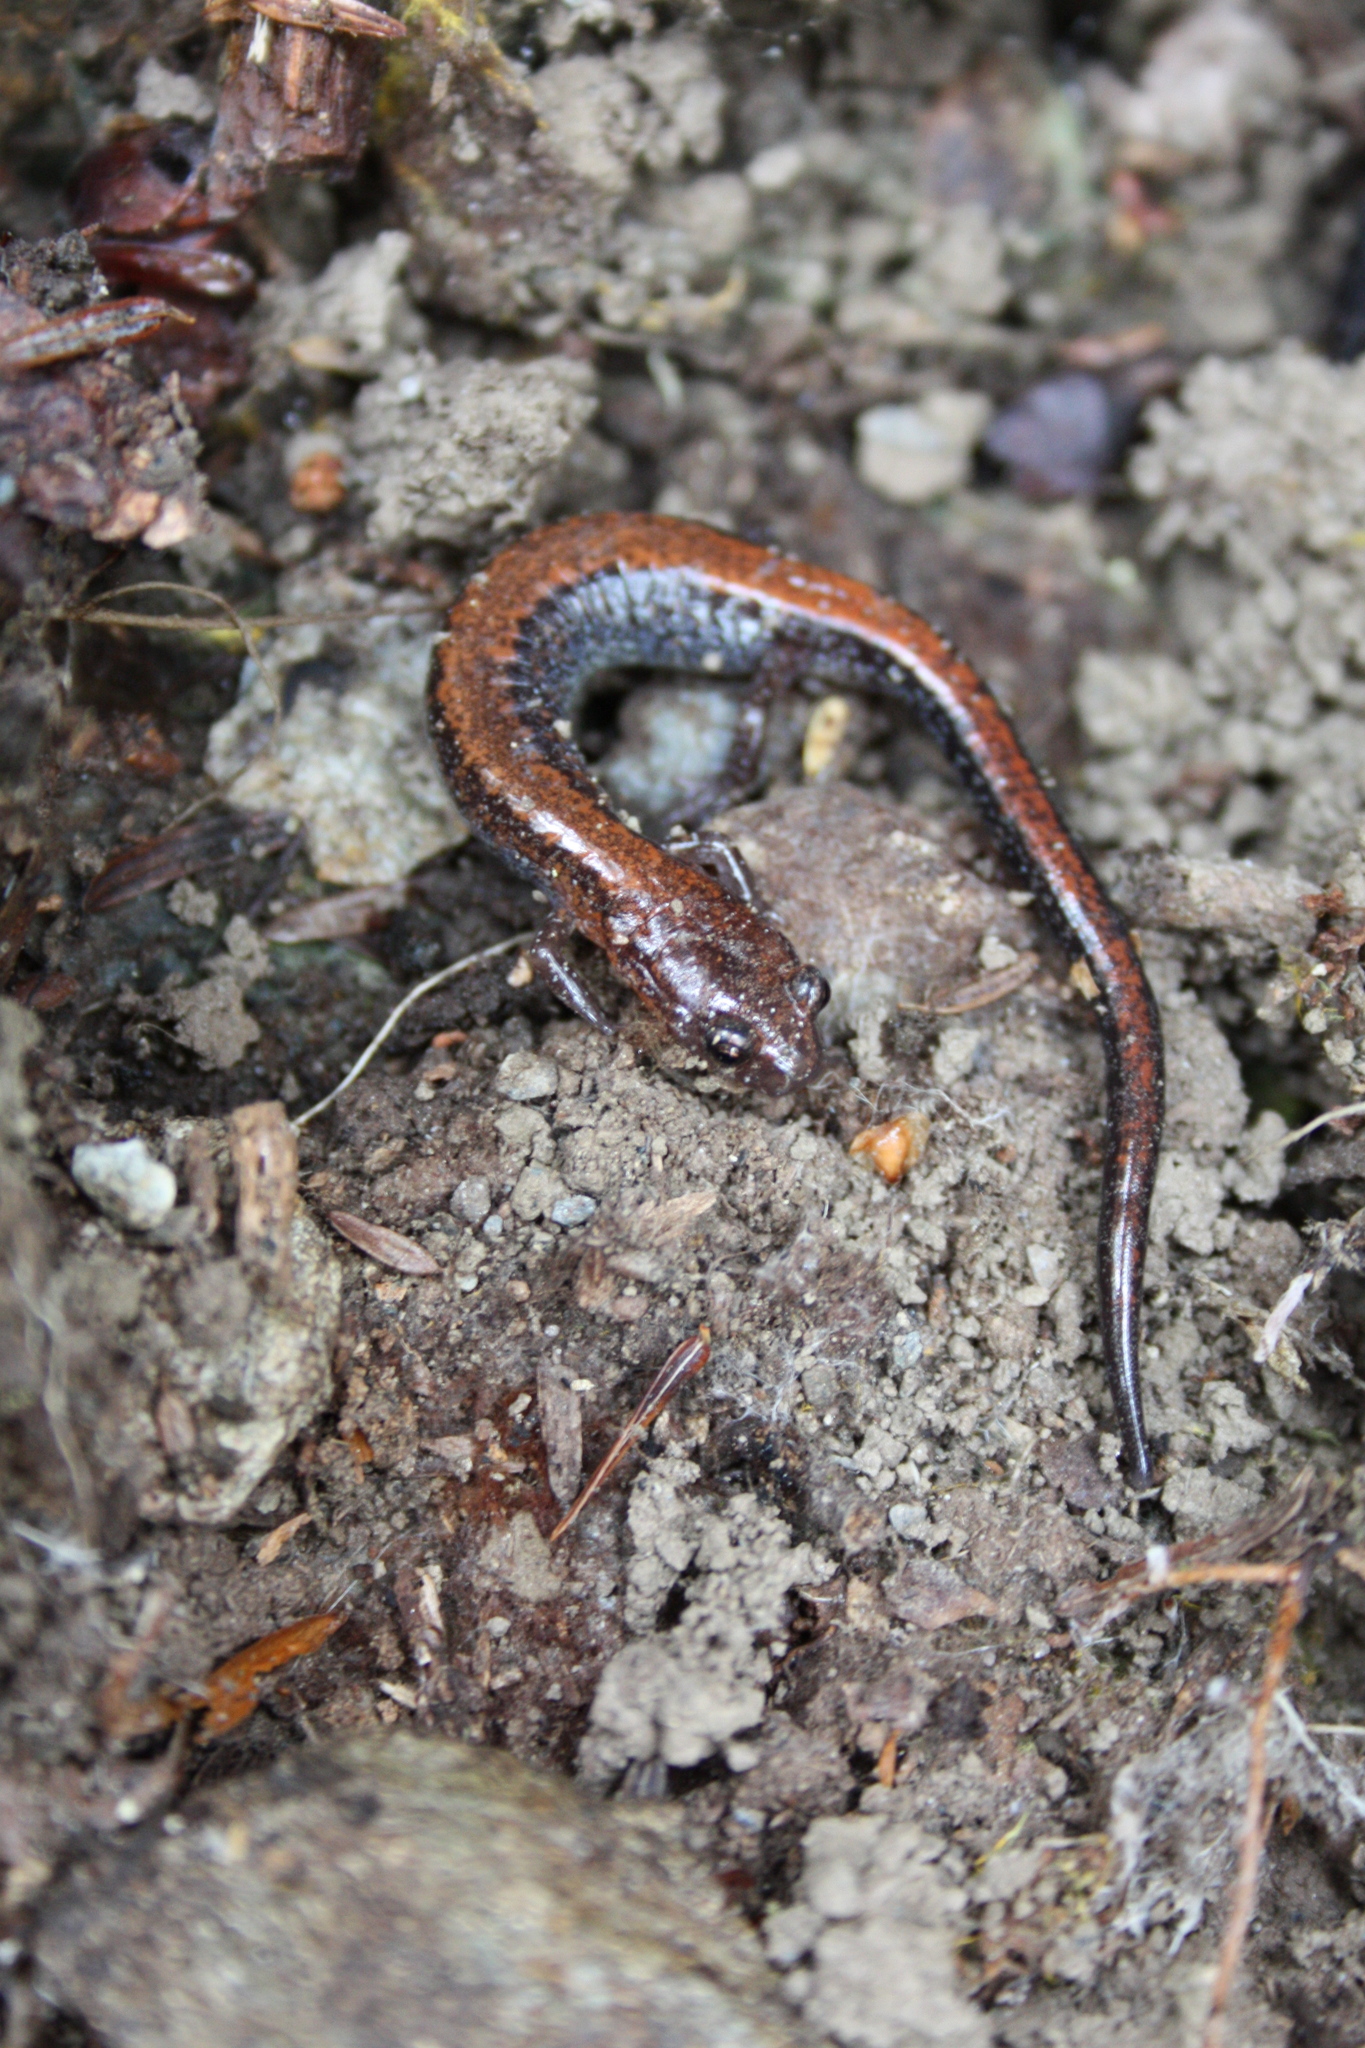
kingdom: Animalia
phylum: Chordata
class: Amphibia
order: Caudata
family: Plethodontidae
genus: Plethodon
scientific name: Plethodon cinereus
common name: Redback salamander
